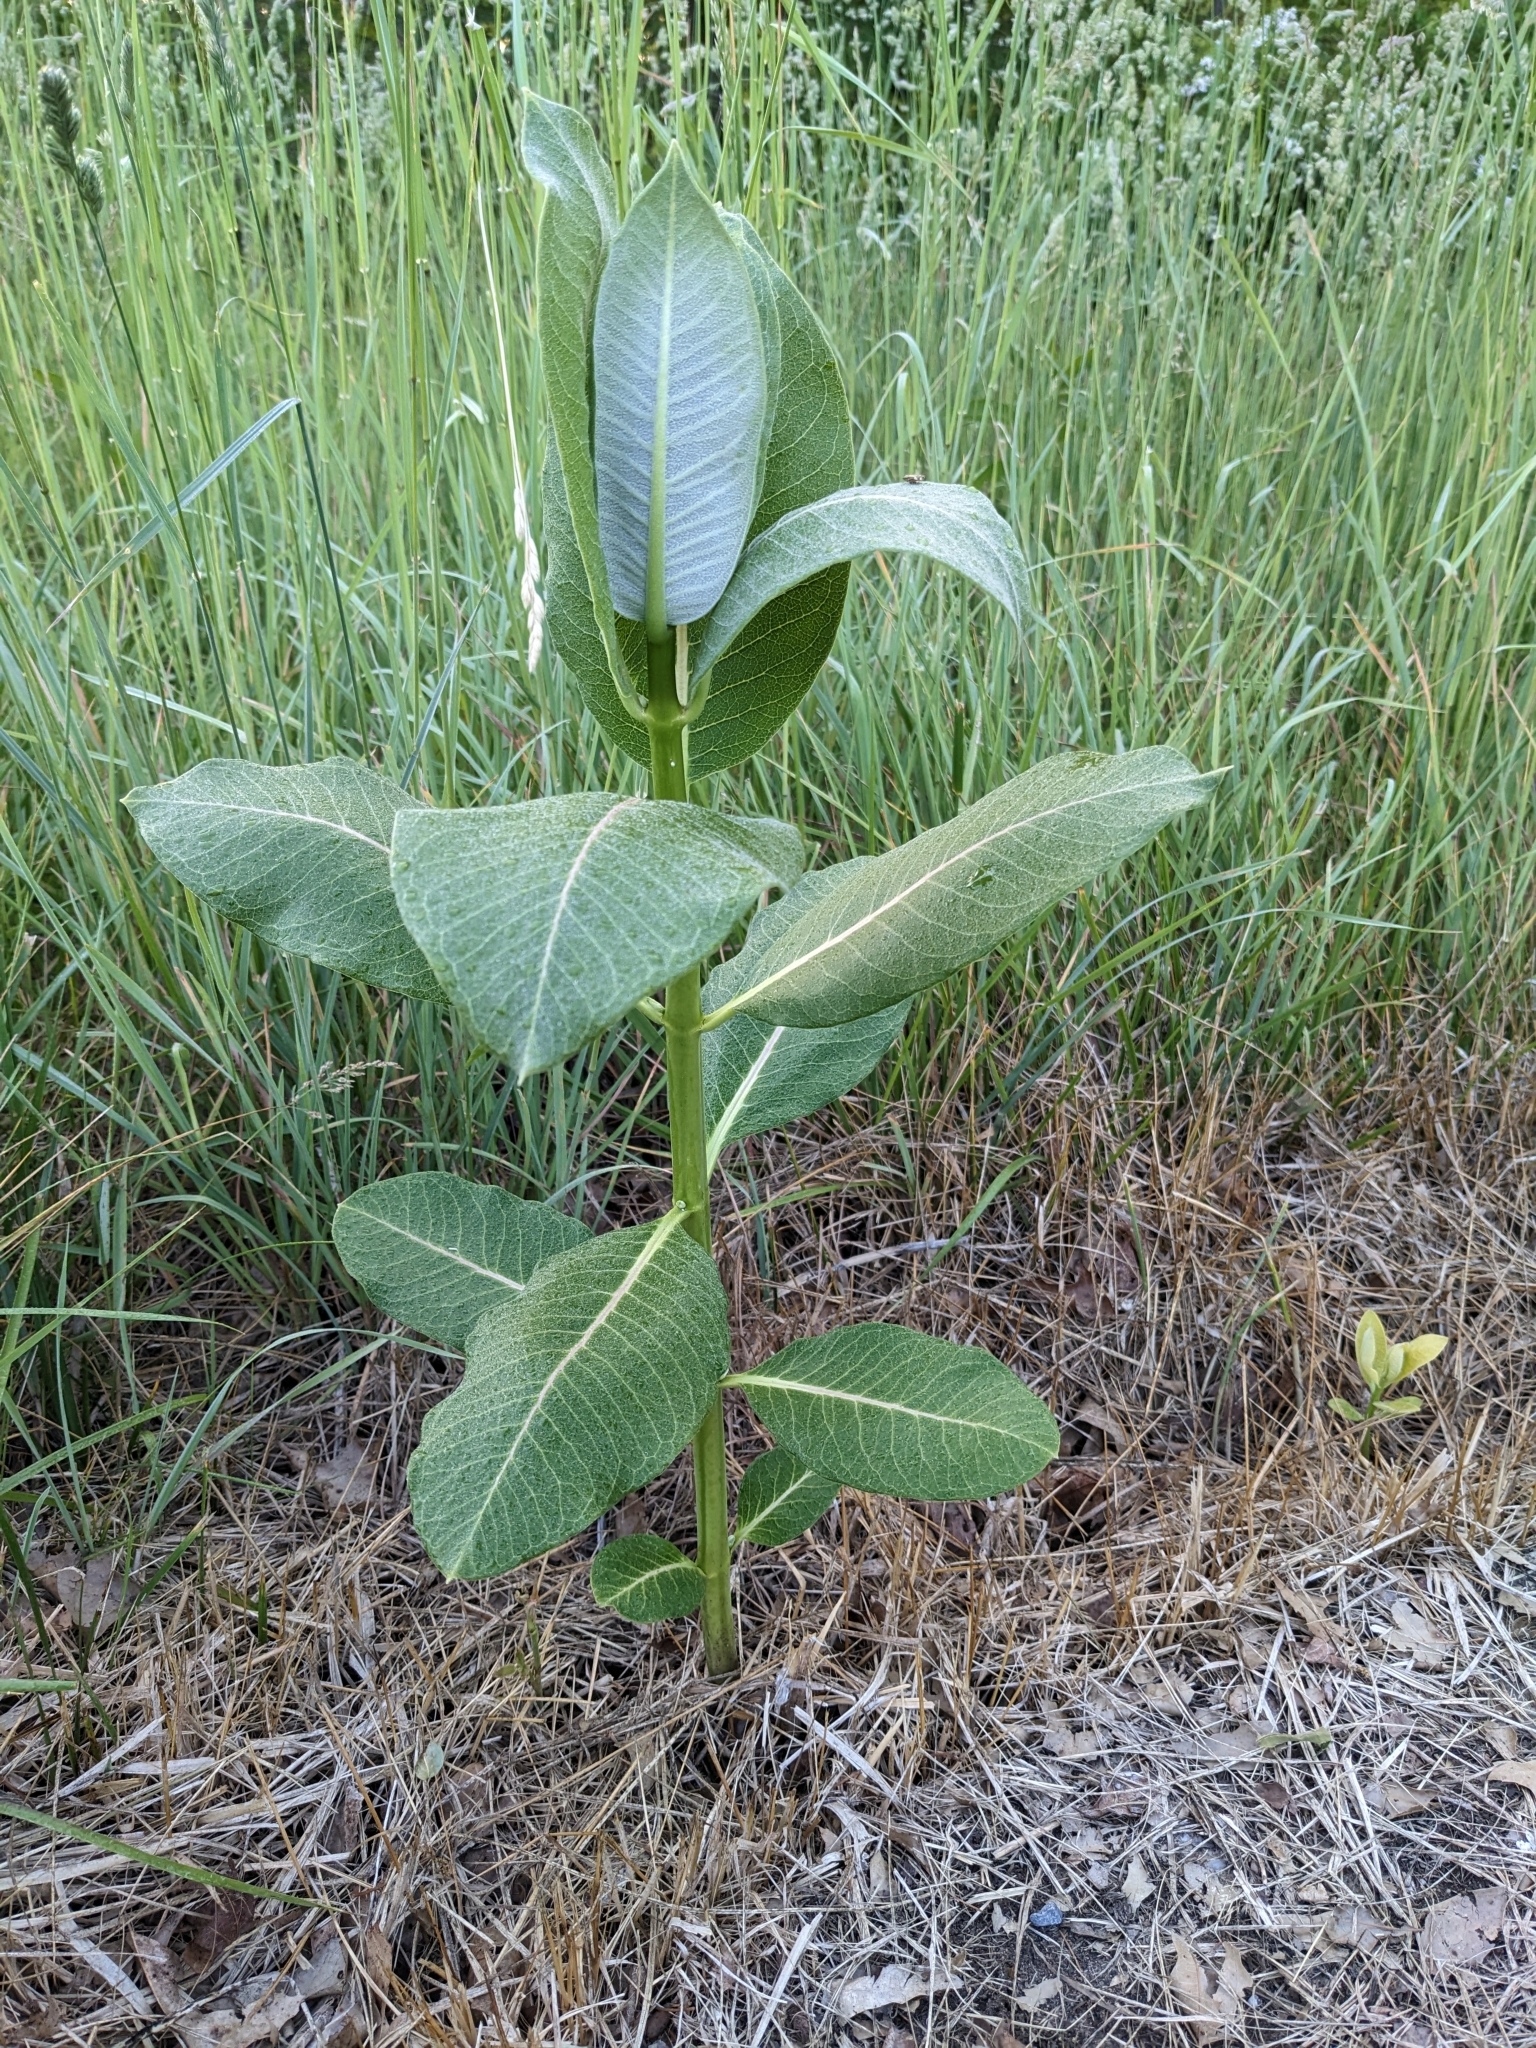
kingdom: Plantae
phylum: Tracheophyta
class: Magnoliopsida
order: Gentianales
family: Apocynaceae
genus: Asclepias
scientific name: Asclepias syriaca
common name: Common milkweed
